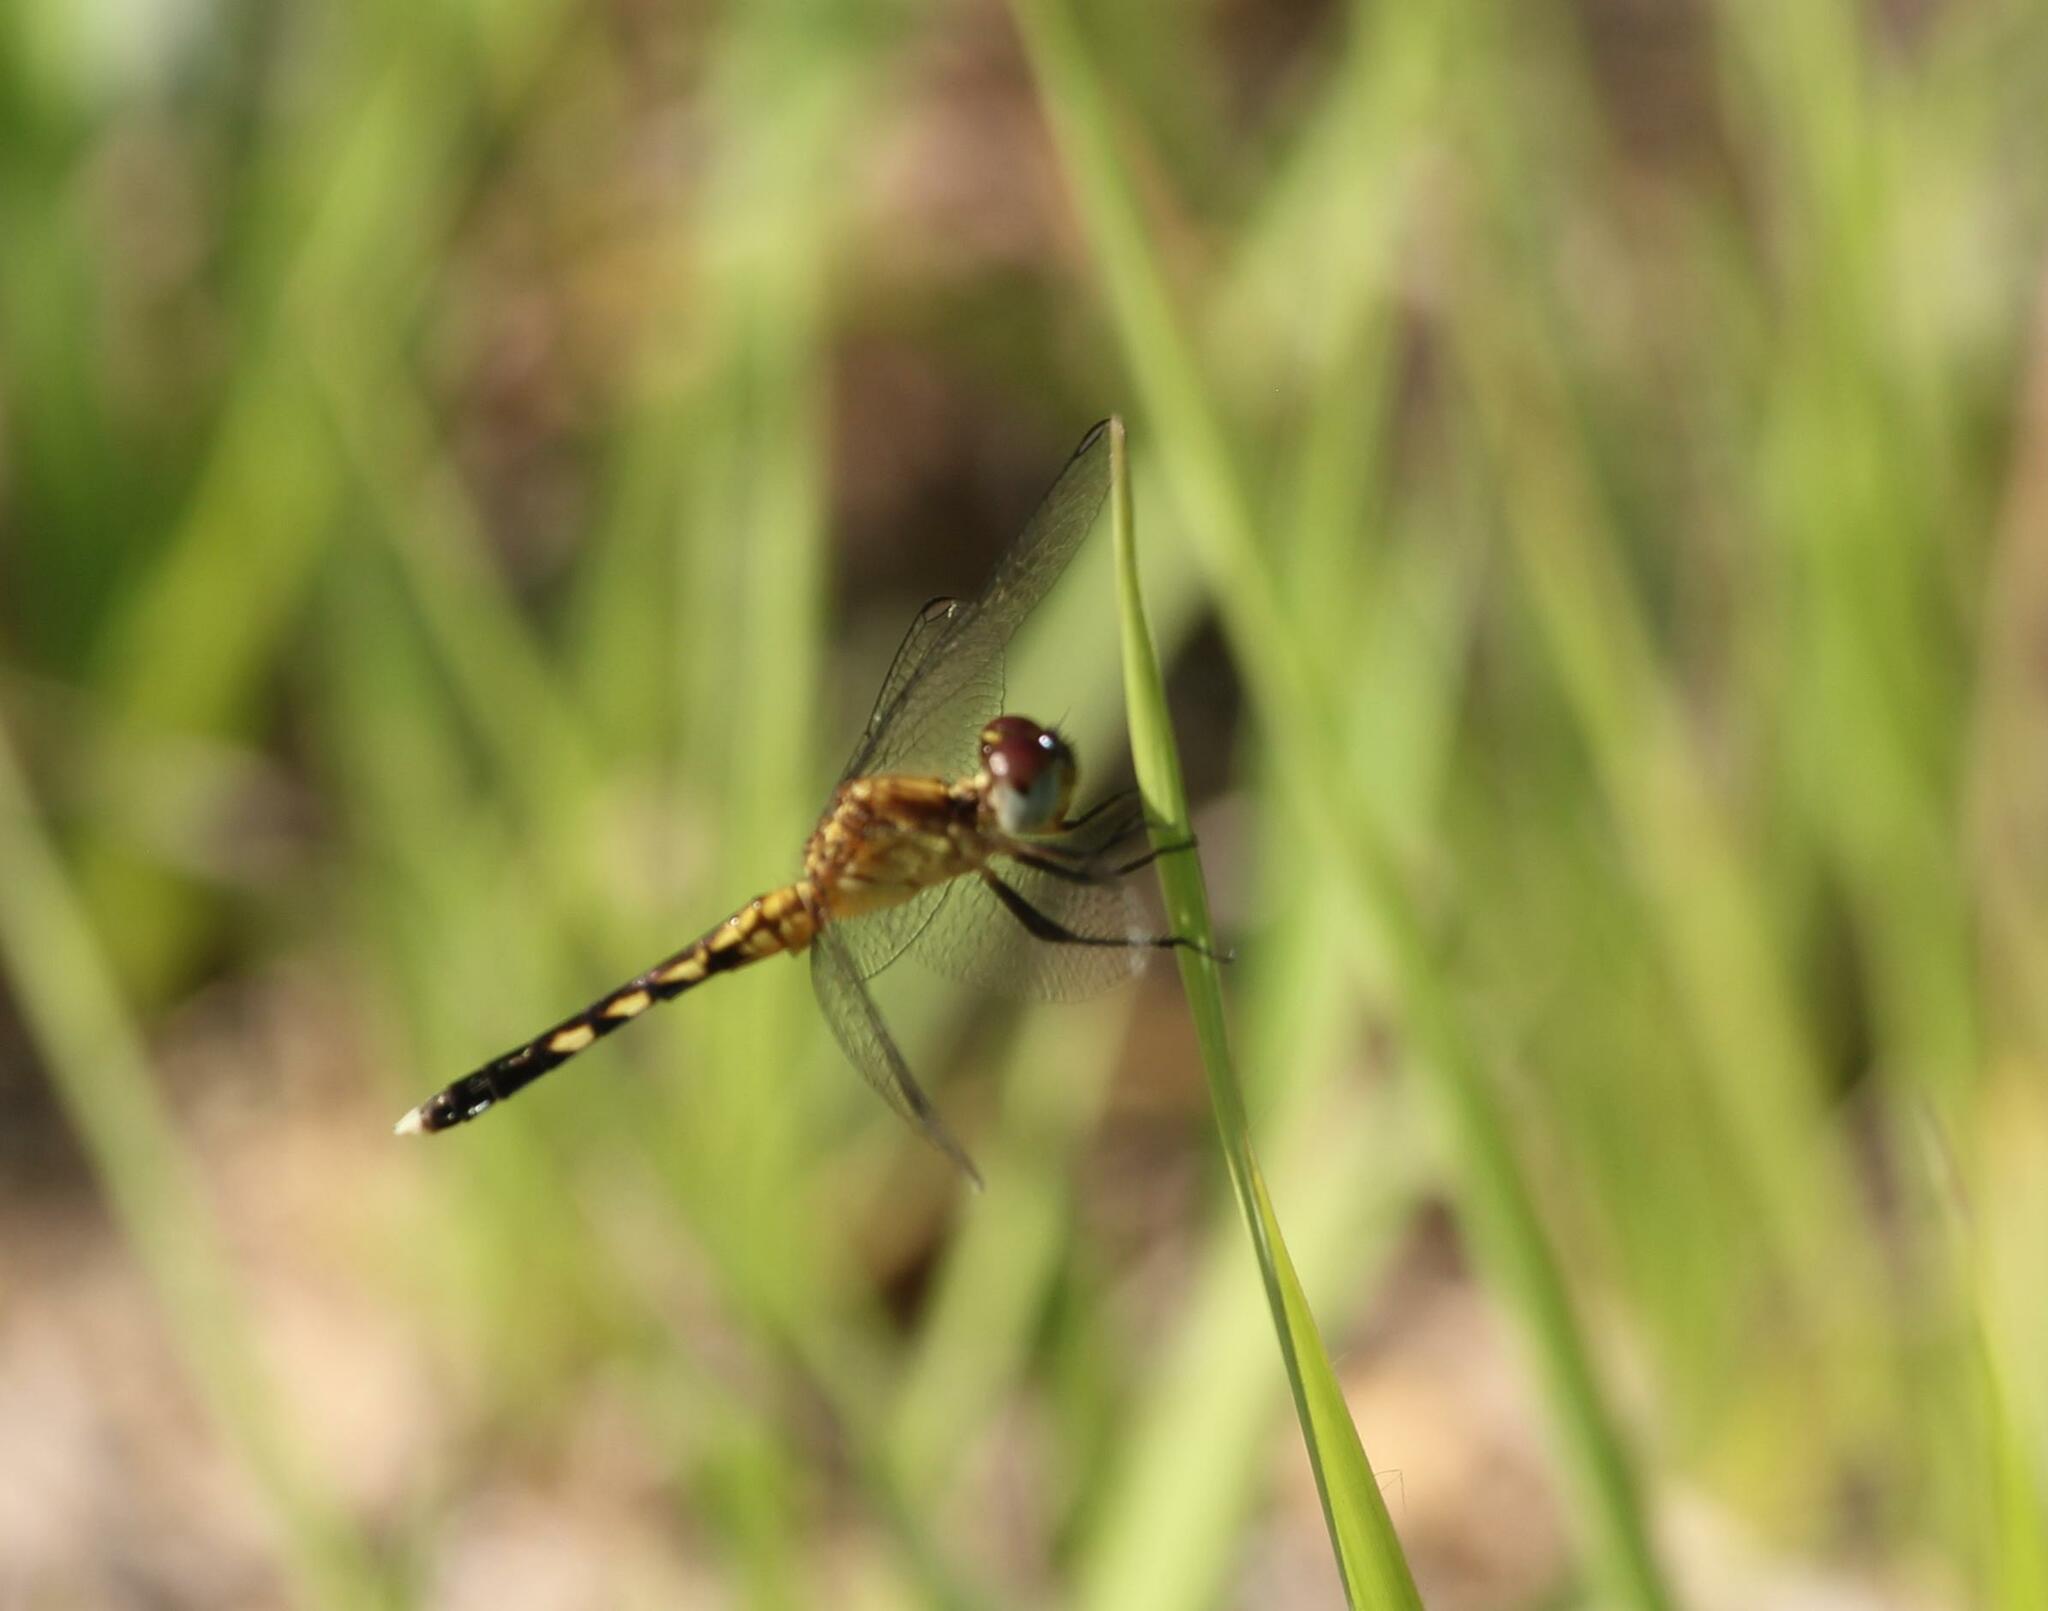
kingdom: Animalia
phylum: Arthropoda
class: Insecta
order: Odonata
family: Libellulidae
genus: Erythrodiplax
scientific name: Erythrodiplax minuscula
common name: Little blue dragonlet
